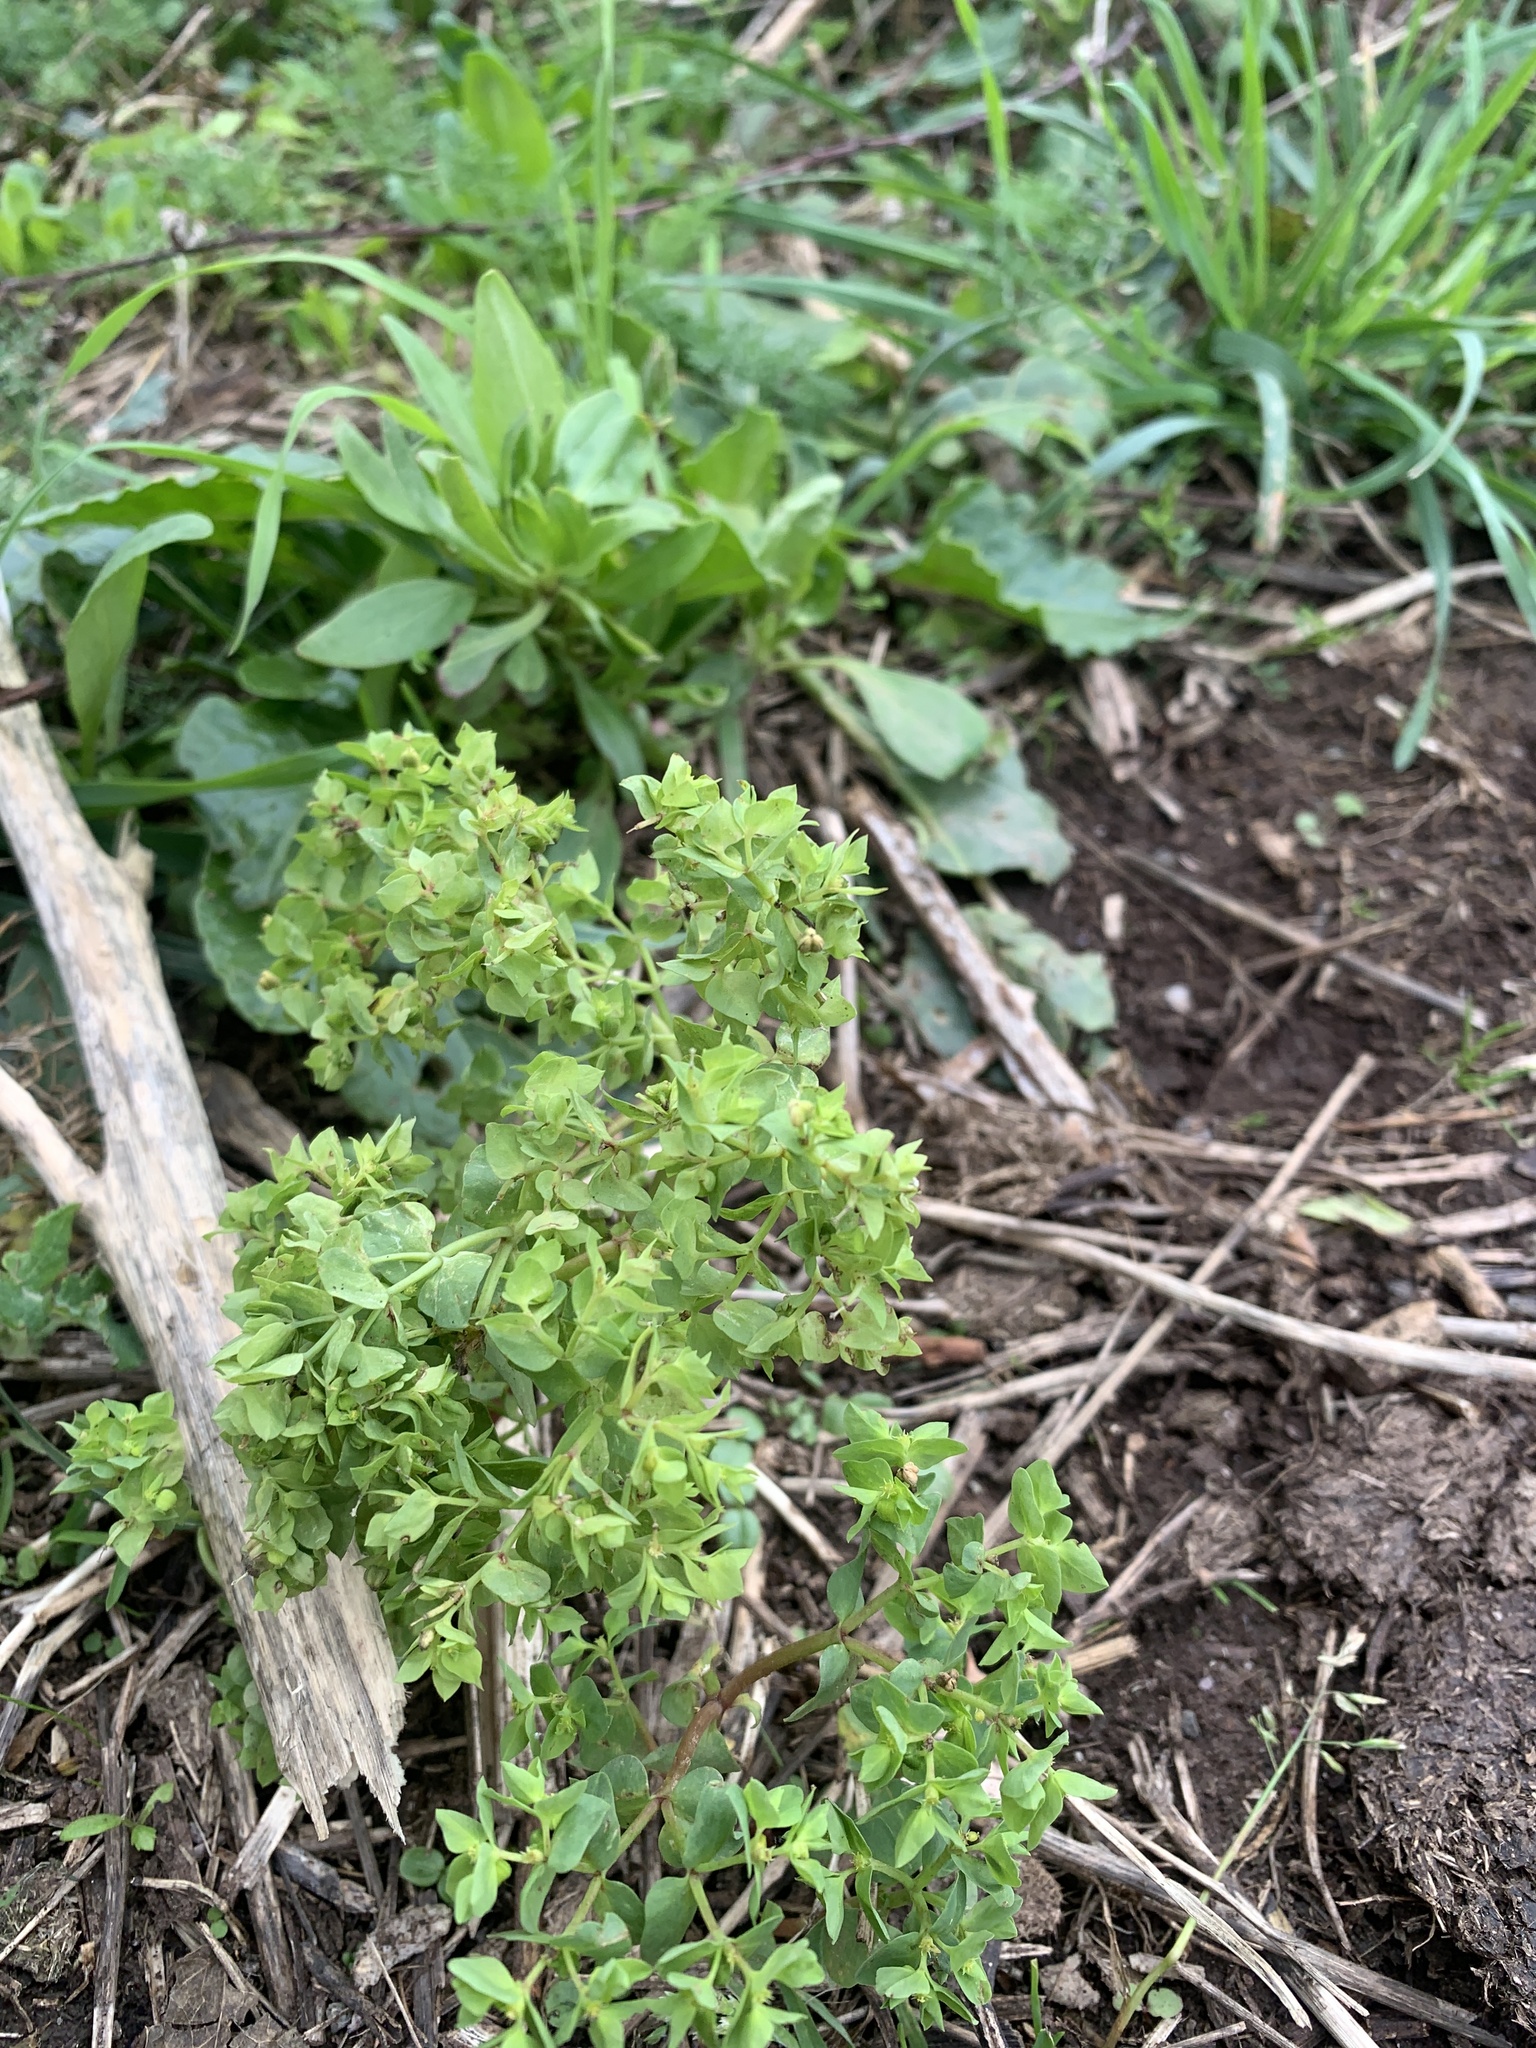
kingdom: Plantae
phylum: Tracheophyta
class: Magnoliopsida
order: Malpighiales
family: Euphorbiaceae
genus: Euphorbia
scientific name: Euphorbia peplus
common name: Petty spurge
